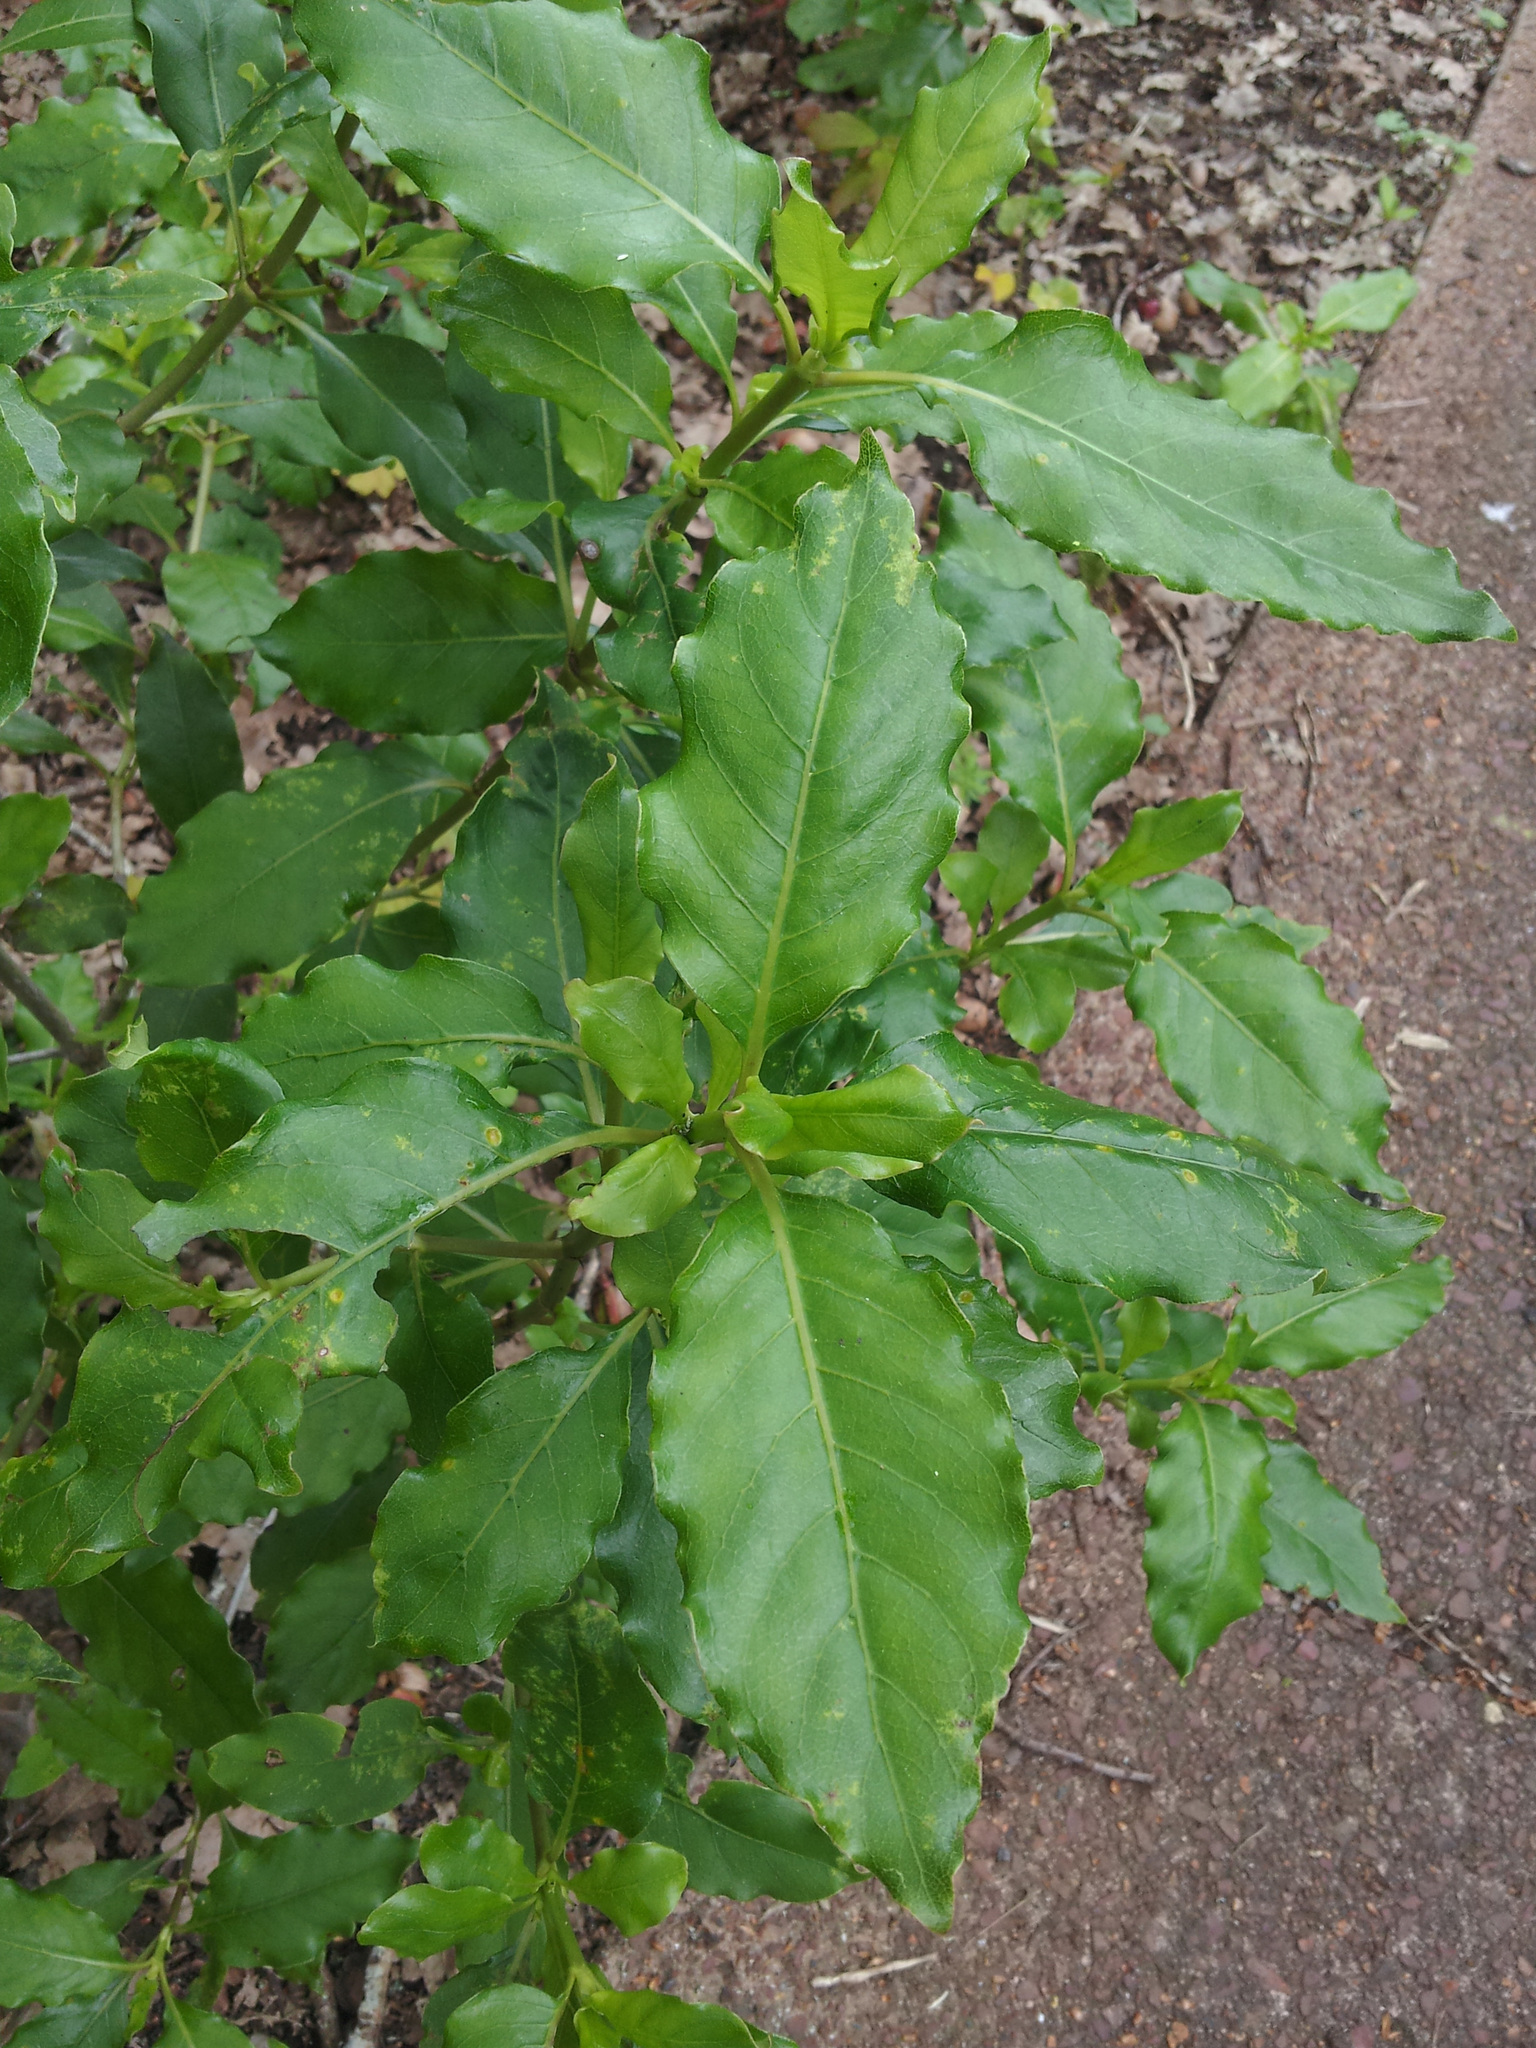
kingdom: Plantae
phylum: Tracheophyta
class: Magnoliopsida
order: Gentianales
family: Rubiaceae
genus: Coprosma
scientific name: Coprosma
